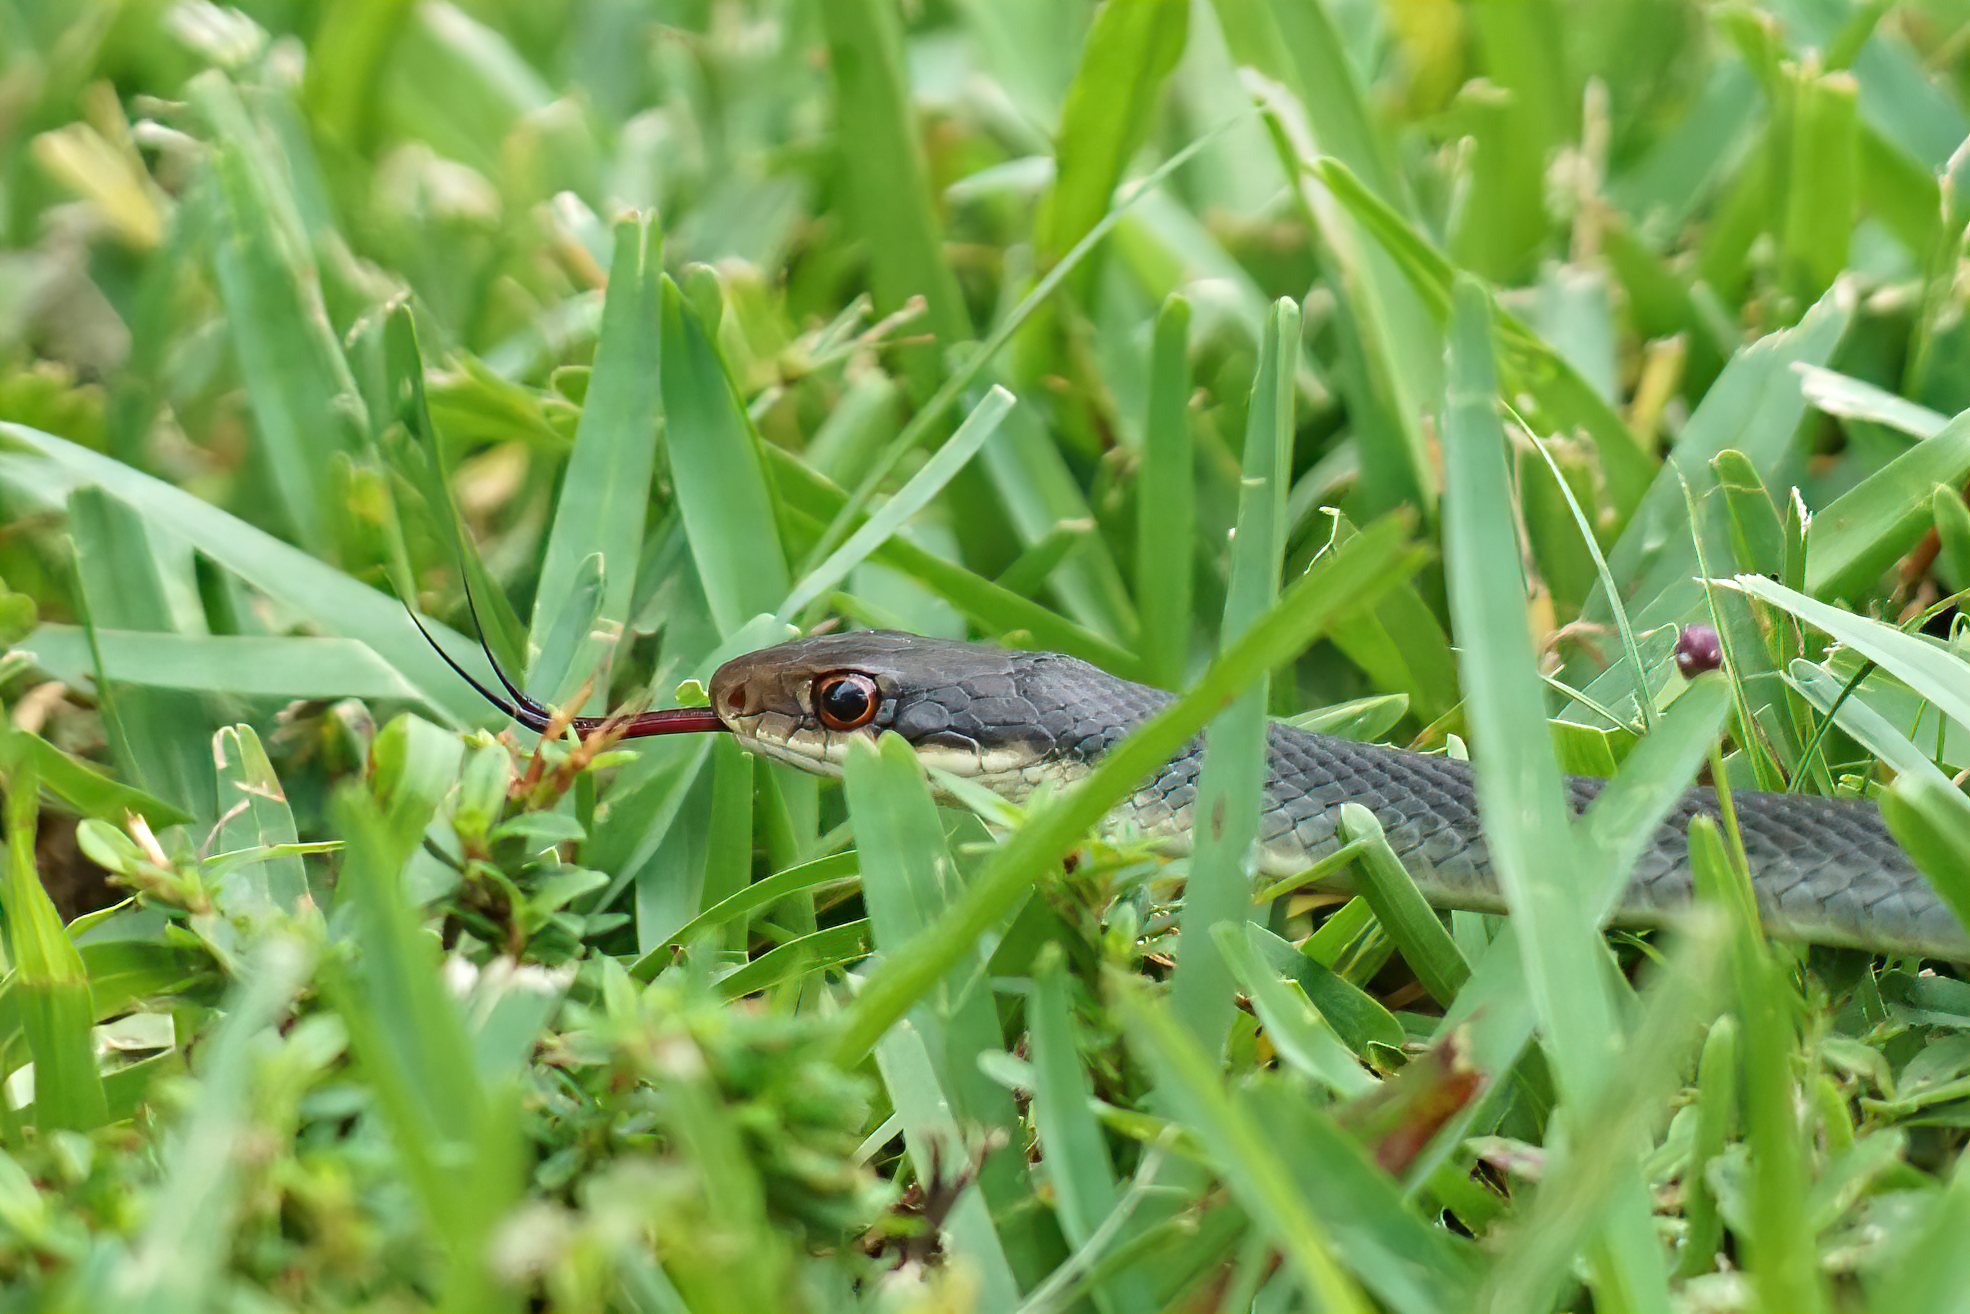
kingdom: Animalia
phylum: Chordata
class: Squamata
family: Colubridae
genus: Coluber
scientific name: Coluber constrictor
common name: Eastern racer
